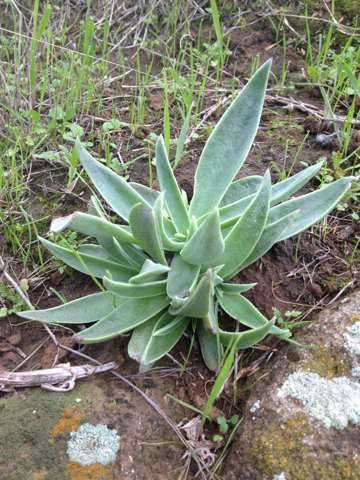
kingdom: Plantae
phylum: Tracheophyta
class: Magnoliopsida
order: Saxifragales
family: Crassulaceae
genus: Dudleya
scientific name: Dudleya lanceolata
